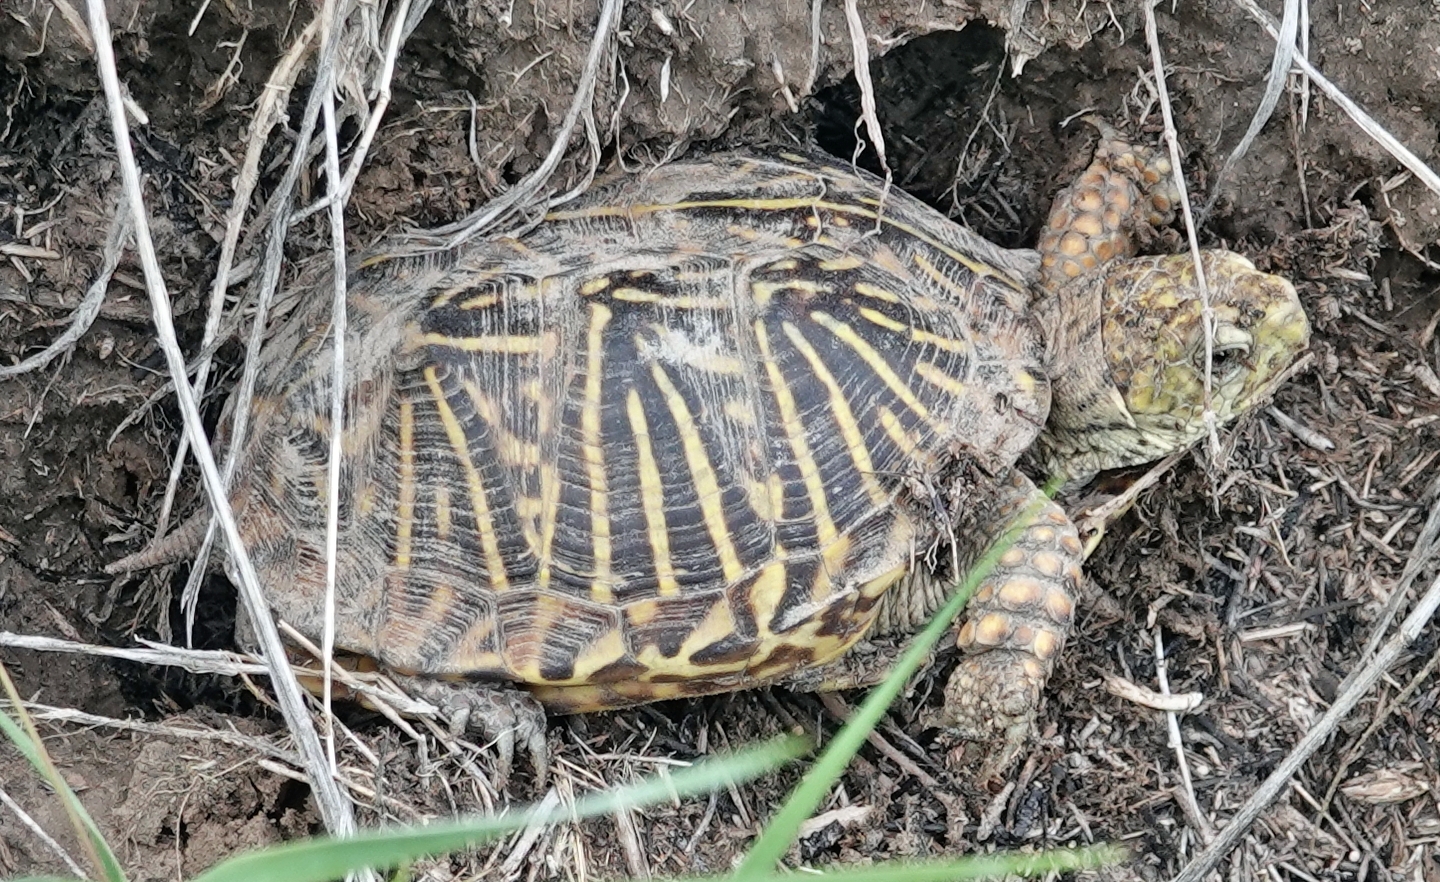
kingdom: Animalia
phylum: Chordata
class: Testudines
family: Emydidae
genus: Terrapene
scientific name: Terrapene ornata
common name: Western box turtle
